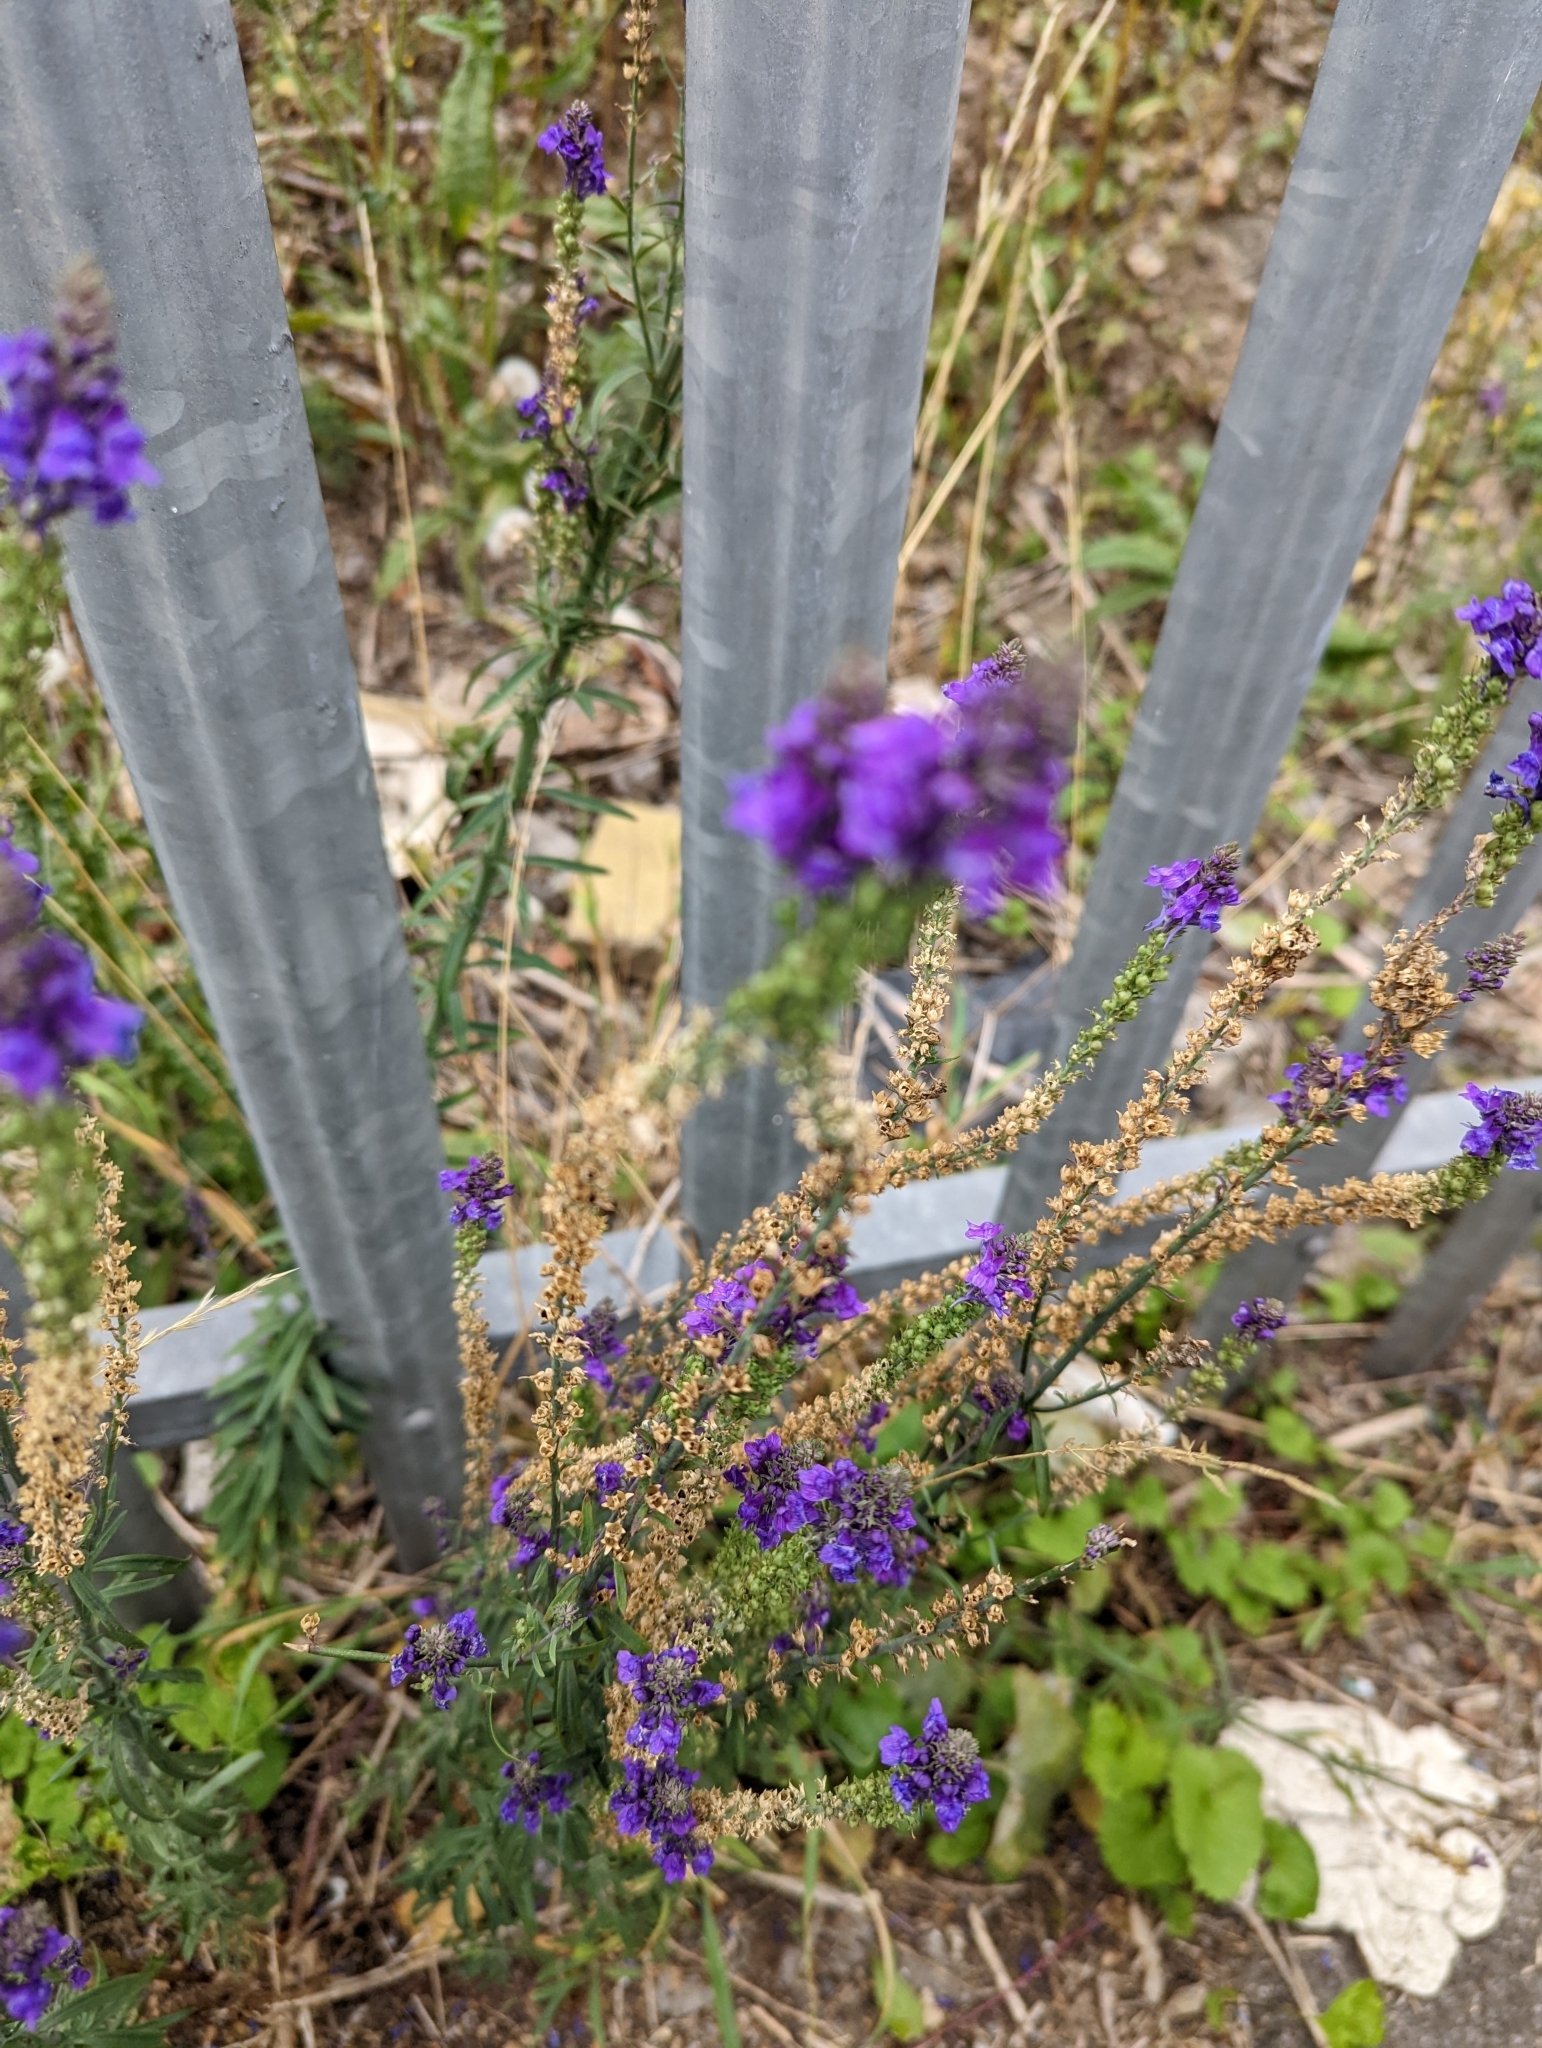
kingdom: Plantae
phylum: Tracheophyta
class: Magnoliopsida
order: Lamiales
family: Plantaginaceae
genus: Linaria
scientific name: Linaria purpurea
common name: Purple toadflax
